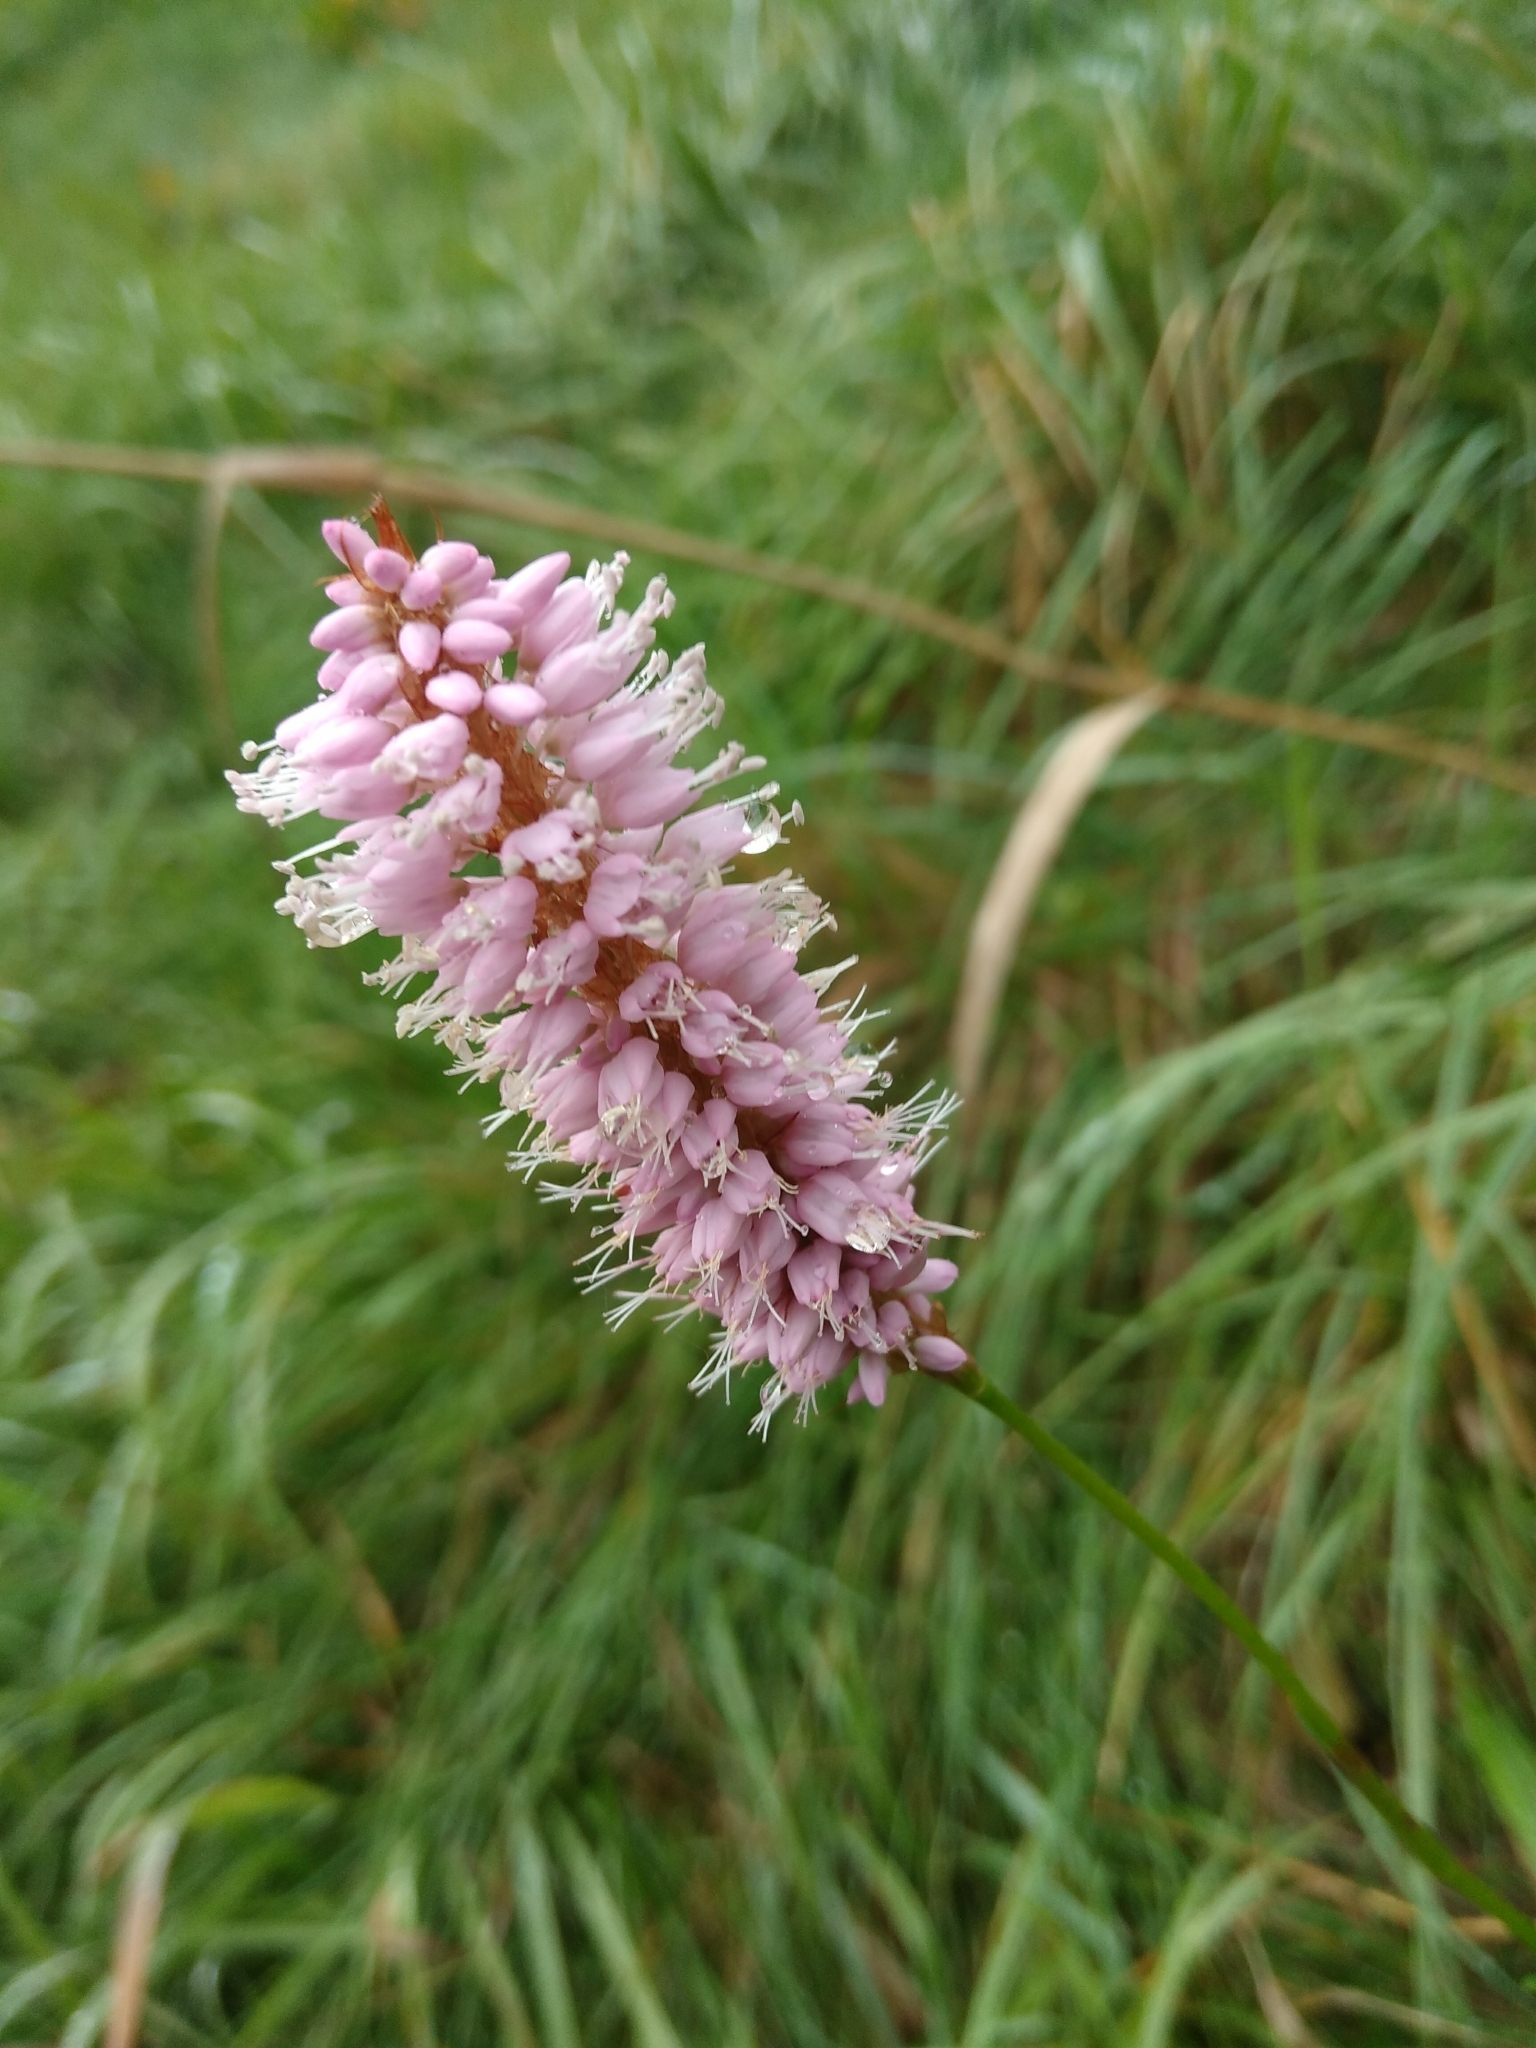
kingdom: Plantae
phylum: Tracheophyta
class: Magnoliopsida
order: Caryophyllales
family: Polygonaceae
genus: Bistorta
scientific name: Bistorta officinalis
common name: Common bistort
